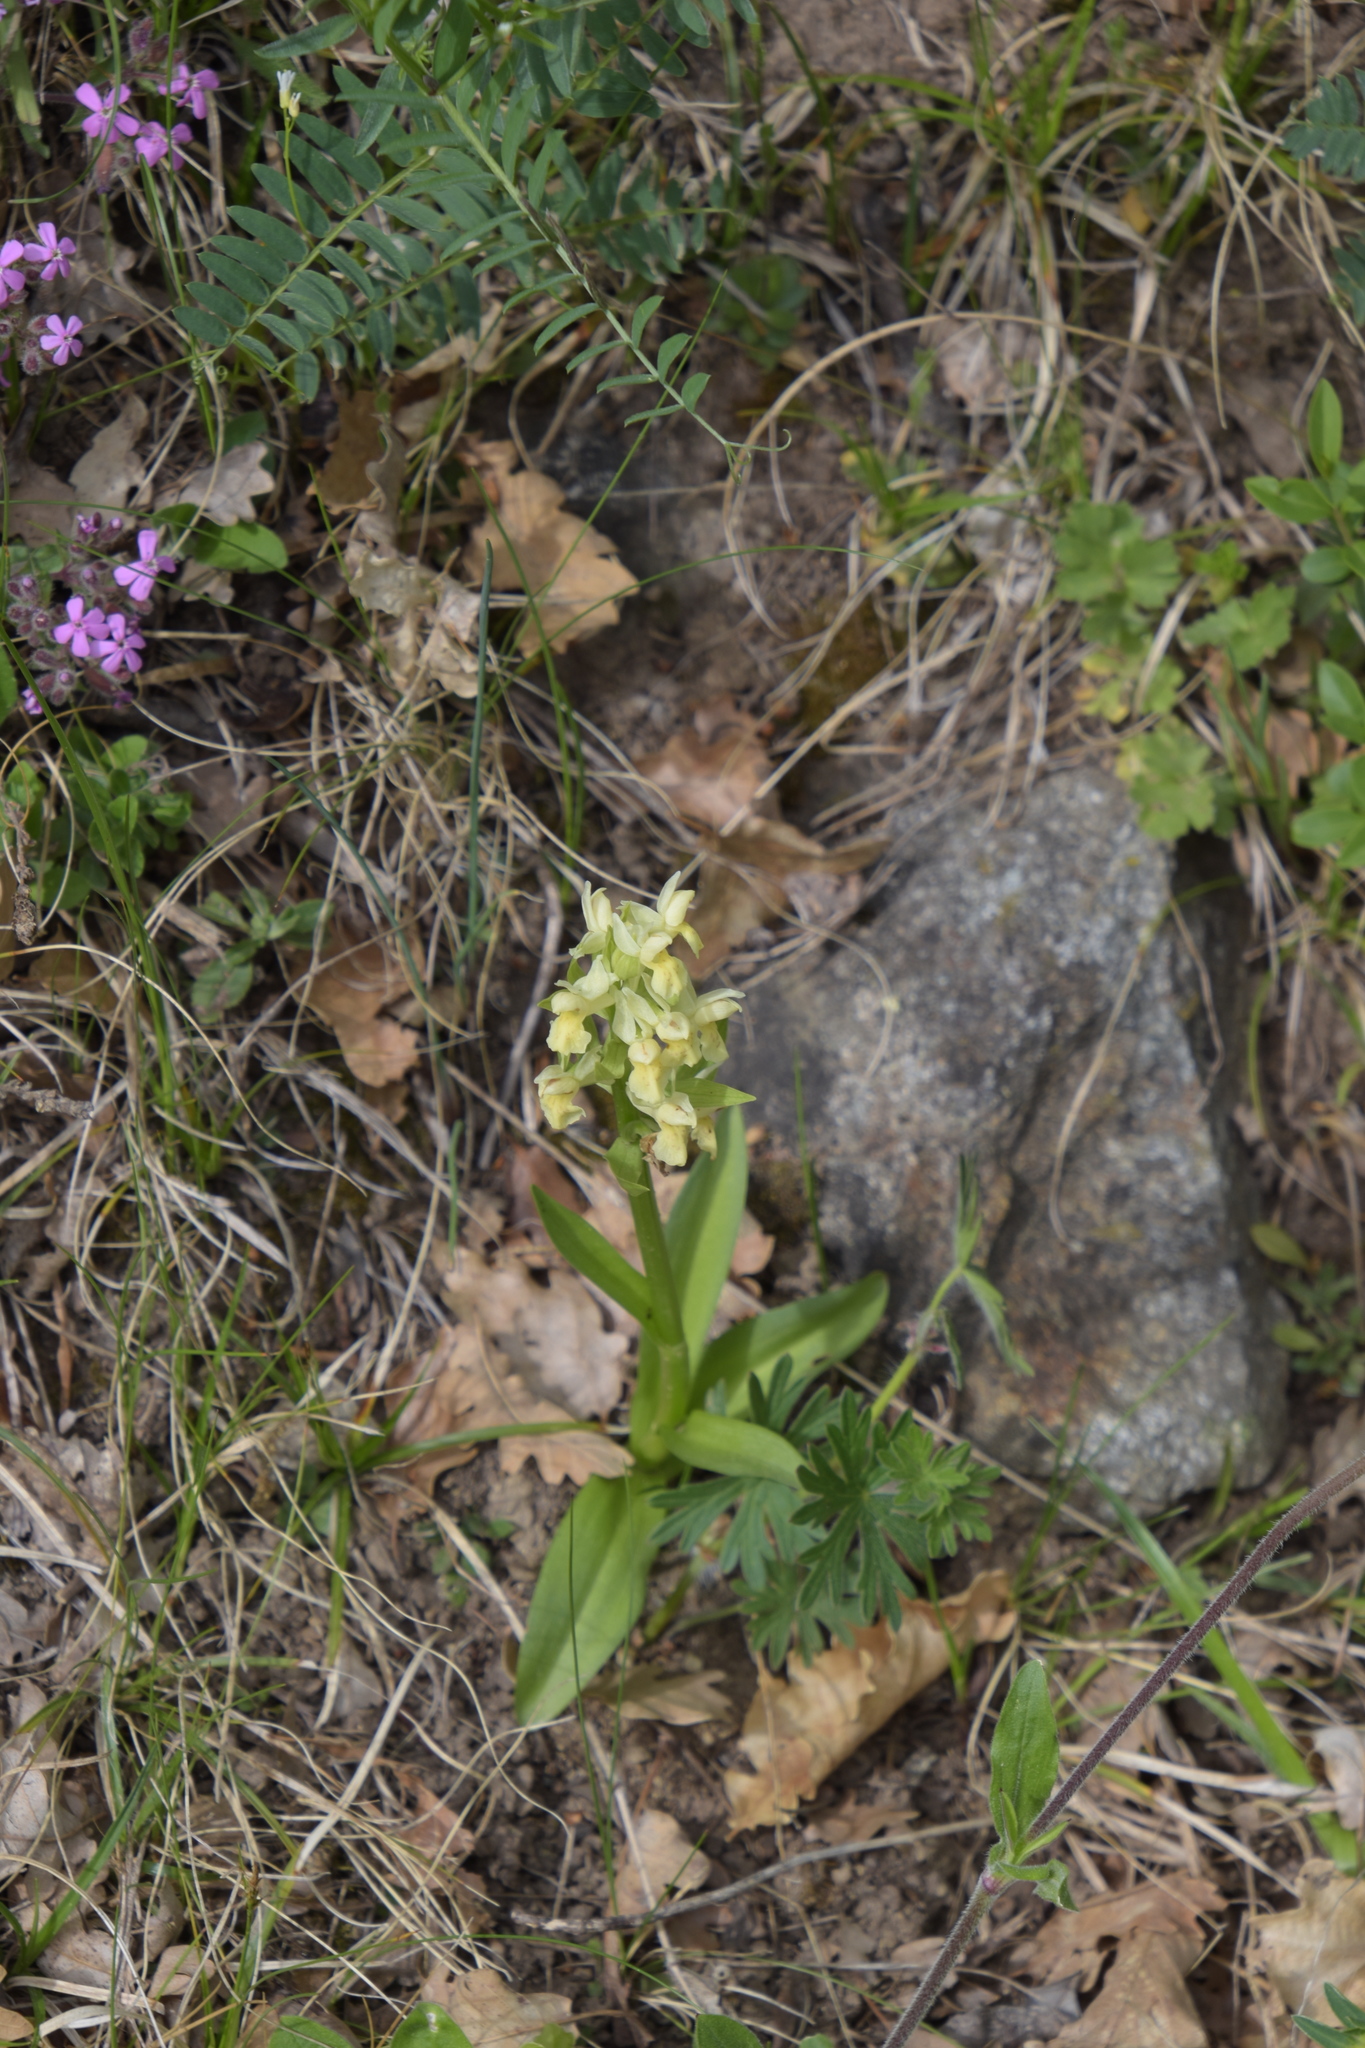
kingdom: Plantae
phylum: Tracheophyta
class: Liliopsida
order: Asparagales
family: Orchidaceae
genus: Dactylorhiza
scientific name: Dactylorhiza sambucina
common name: Elder-flowered orchid
